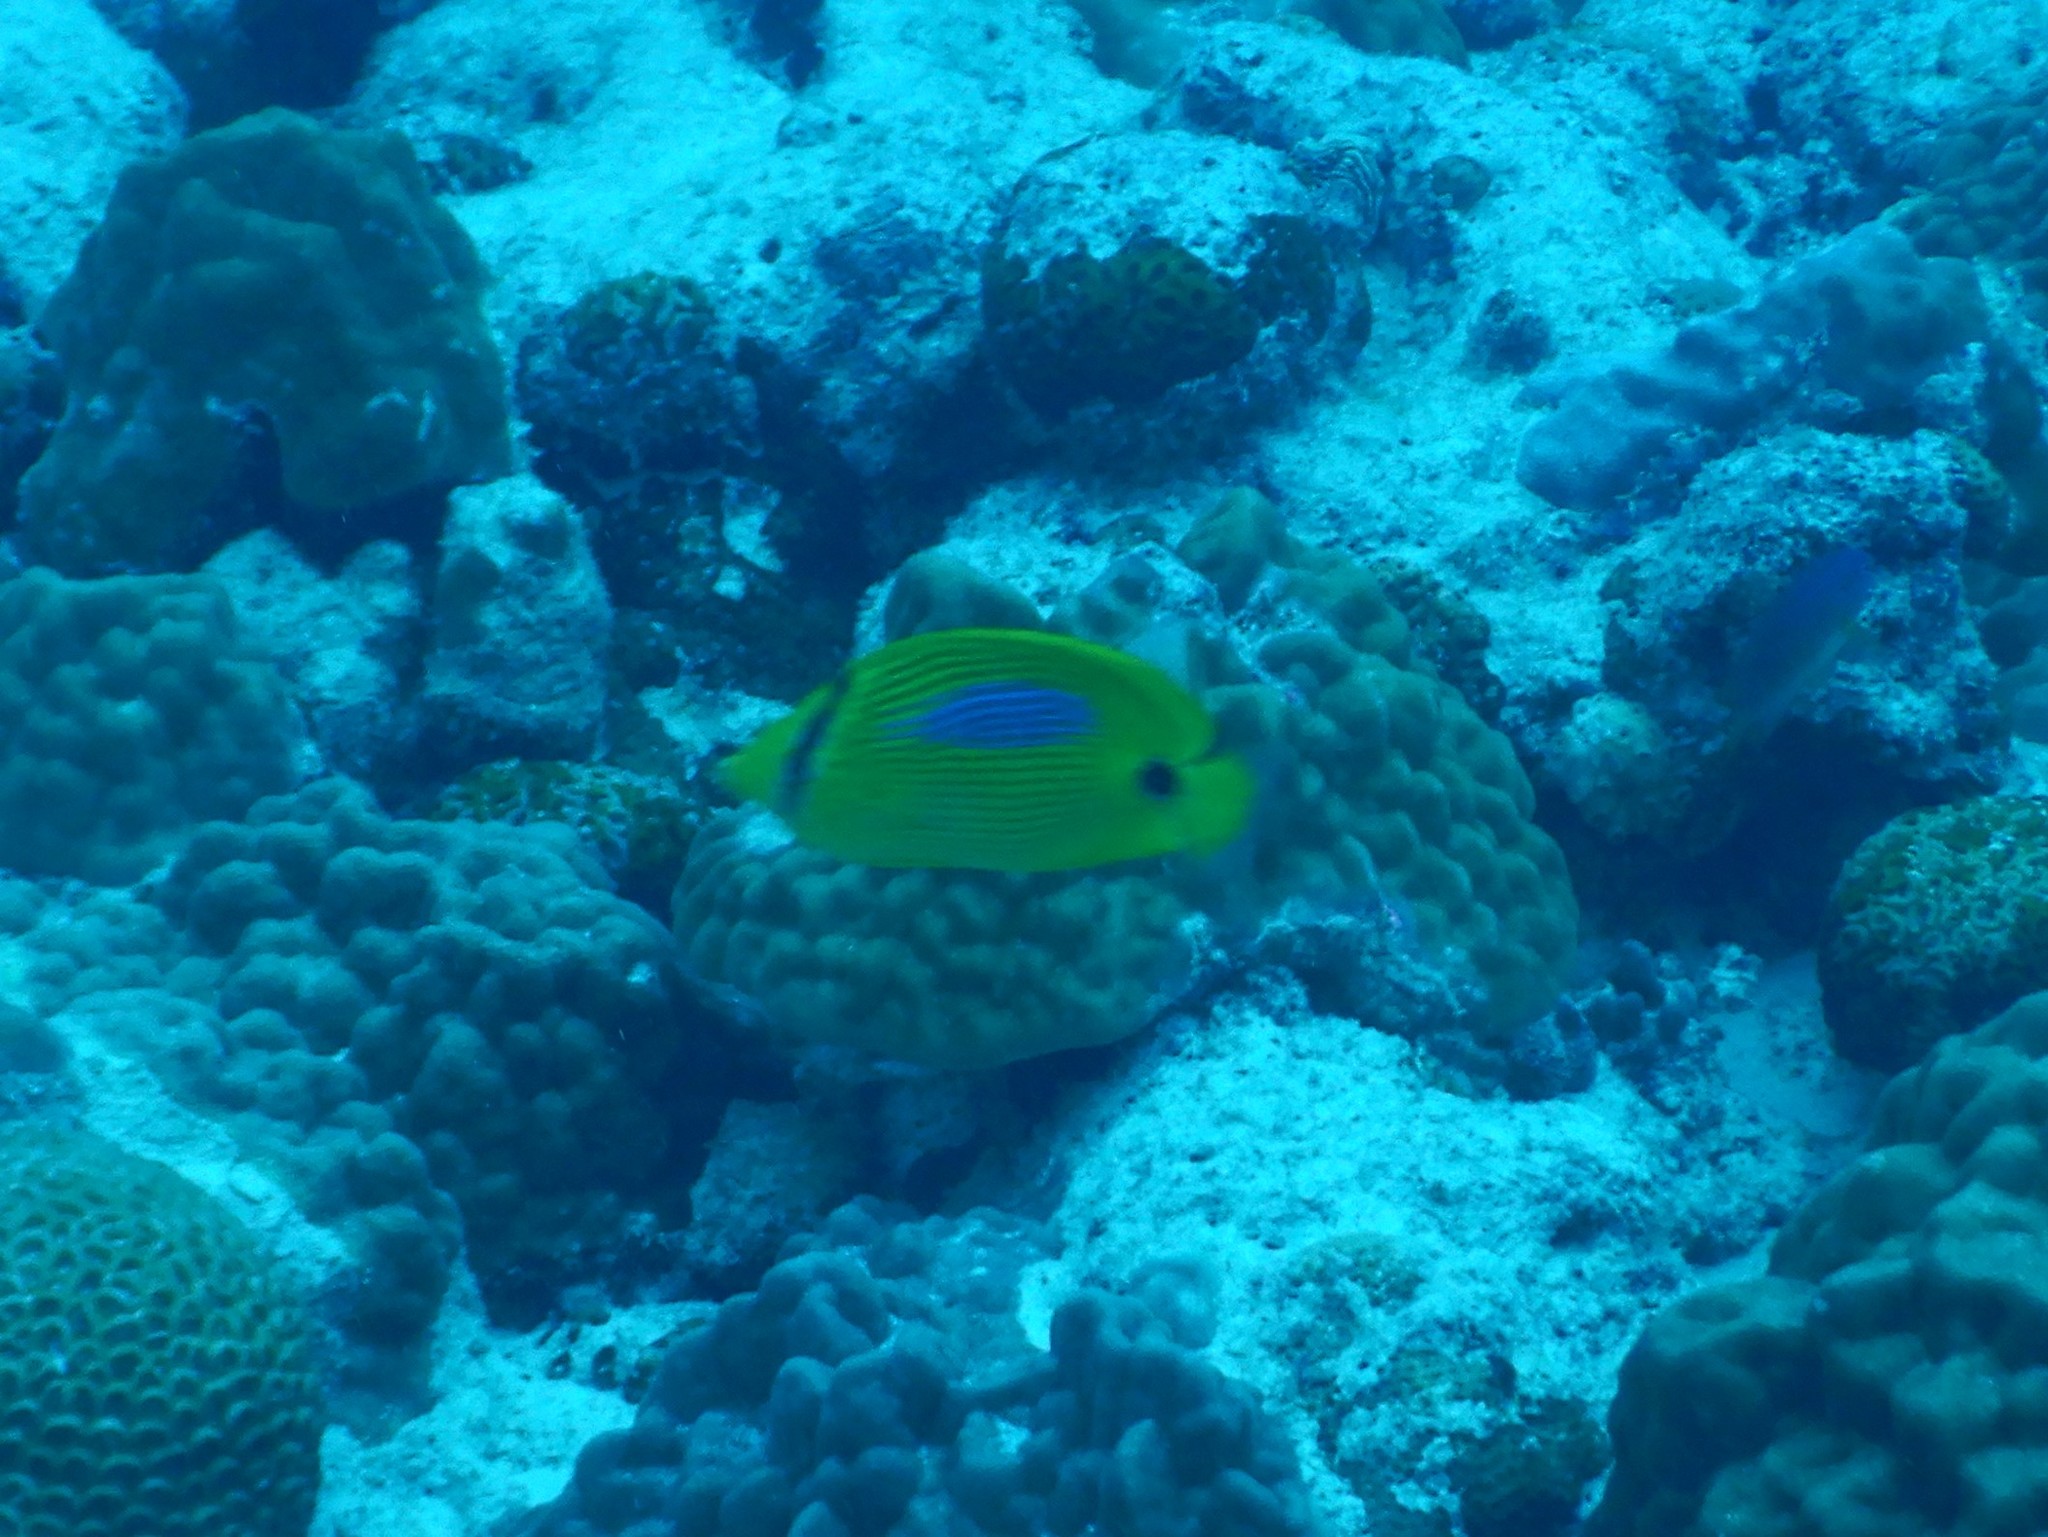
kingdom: Animalia
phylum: Chordata
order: Perciformes
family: Chaetodontidae
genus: Chaetodon
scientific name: Chaetodon plebeius
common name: Bluespot butterflyfish
